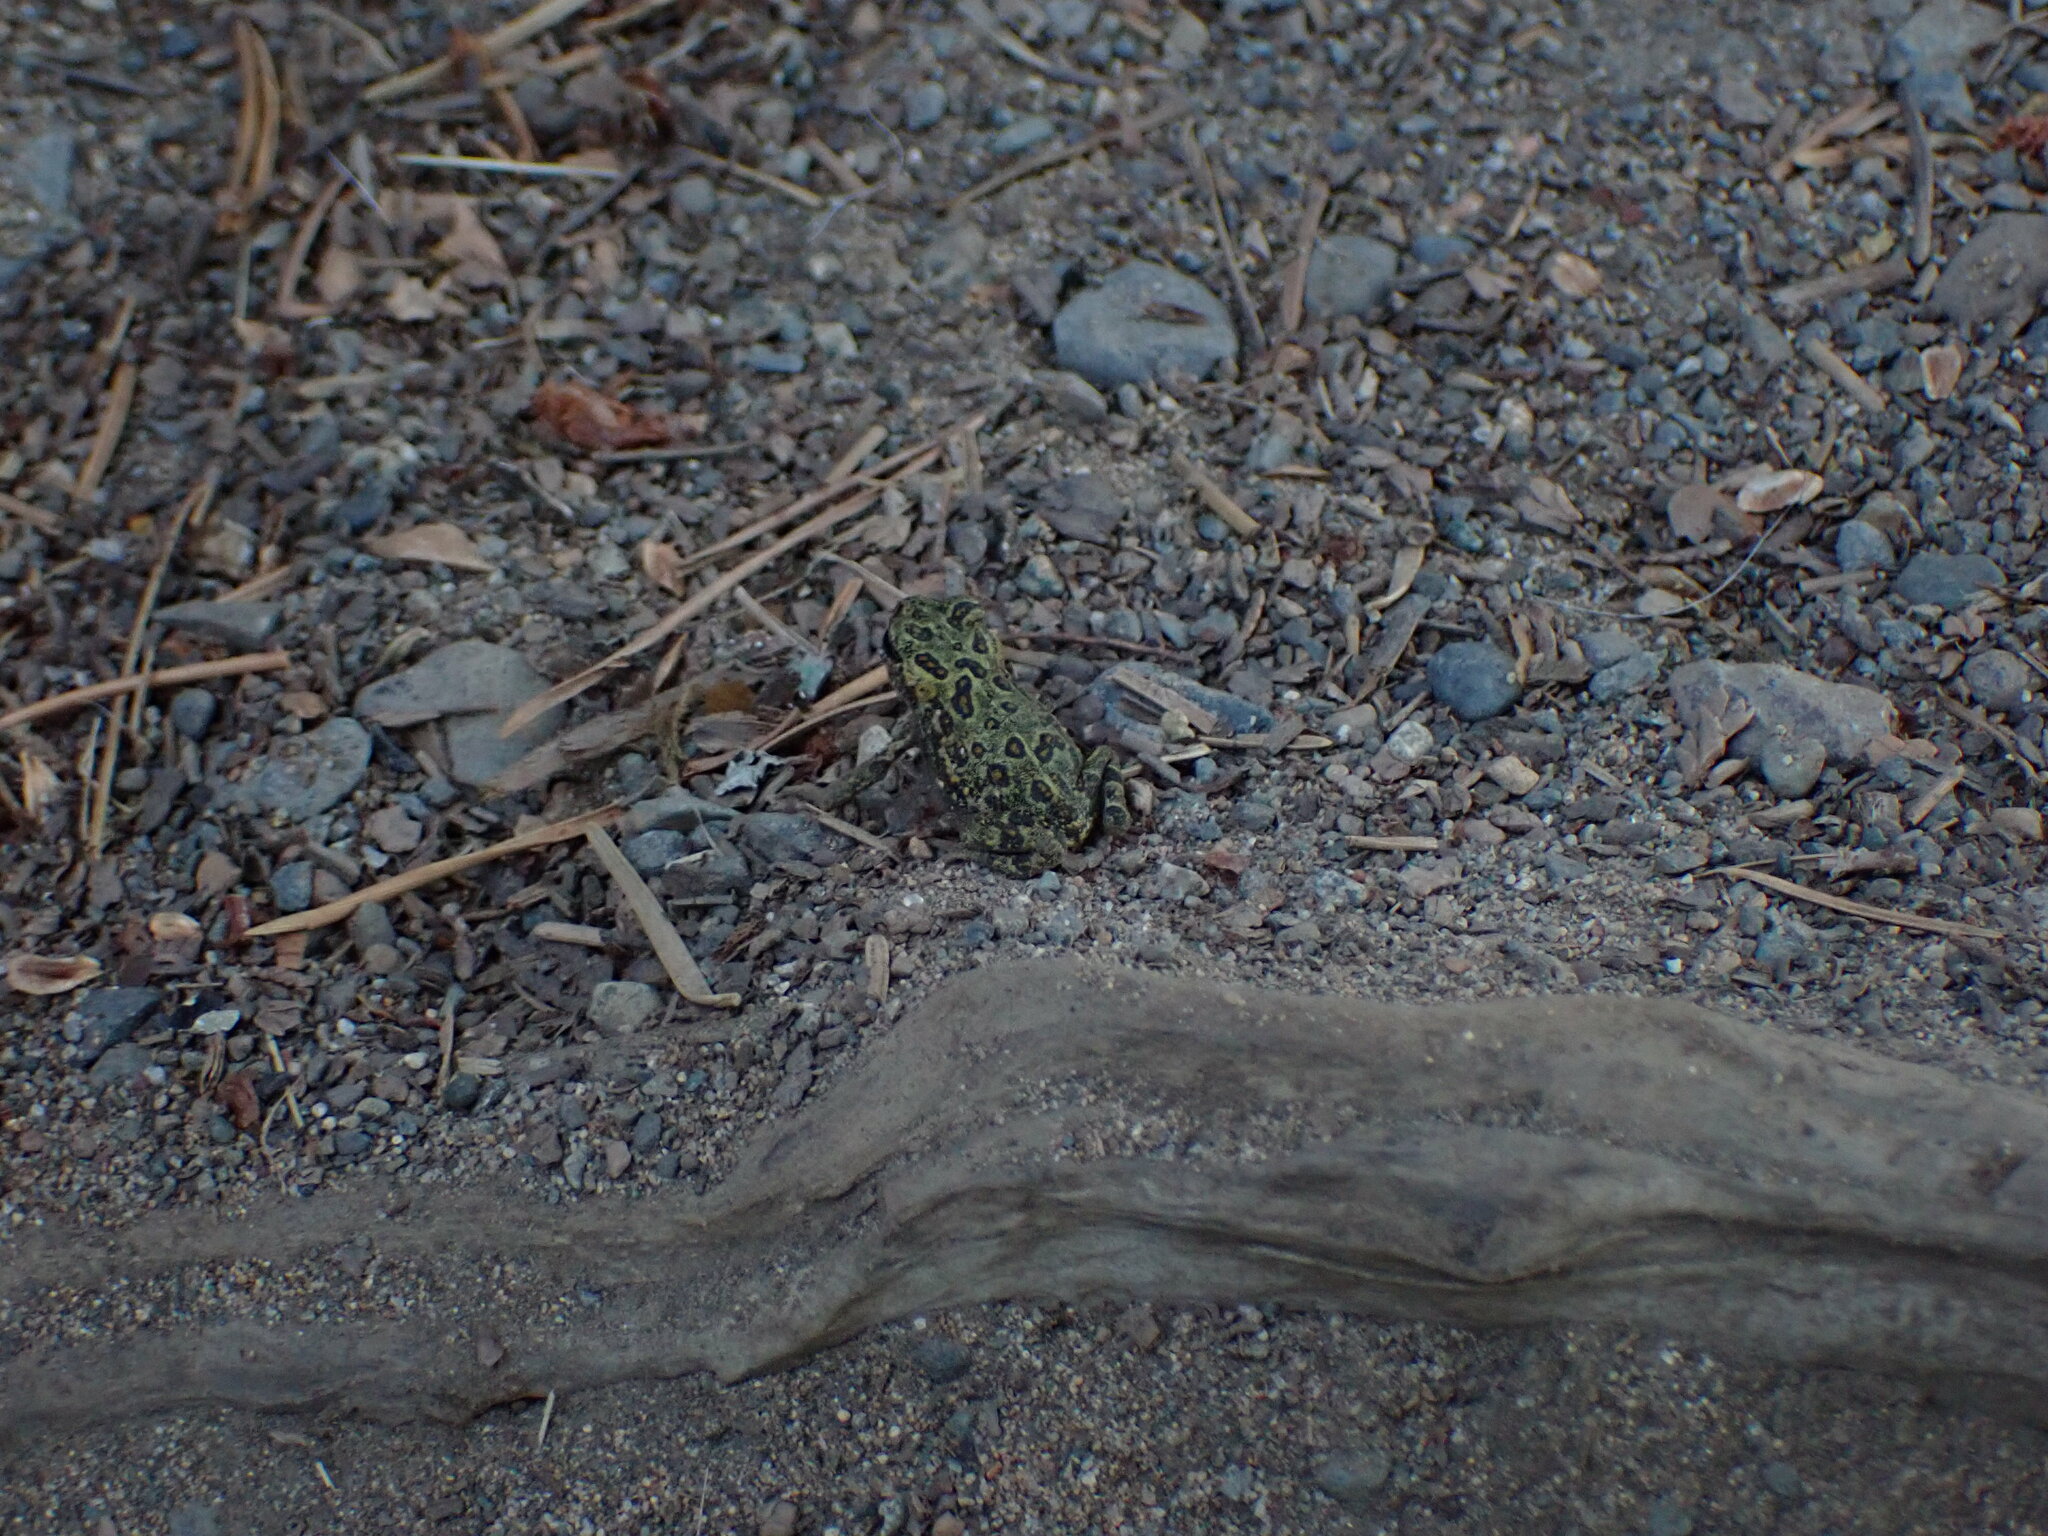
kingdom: Animalia
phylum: Chordata
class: Amphibia
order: Anura
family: Bufonidae
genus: Anaxyrus
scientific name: Anaxyrus boreas
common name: Western toad
